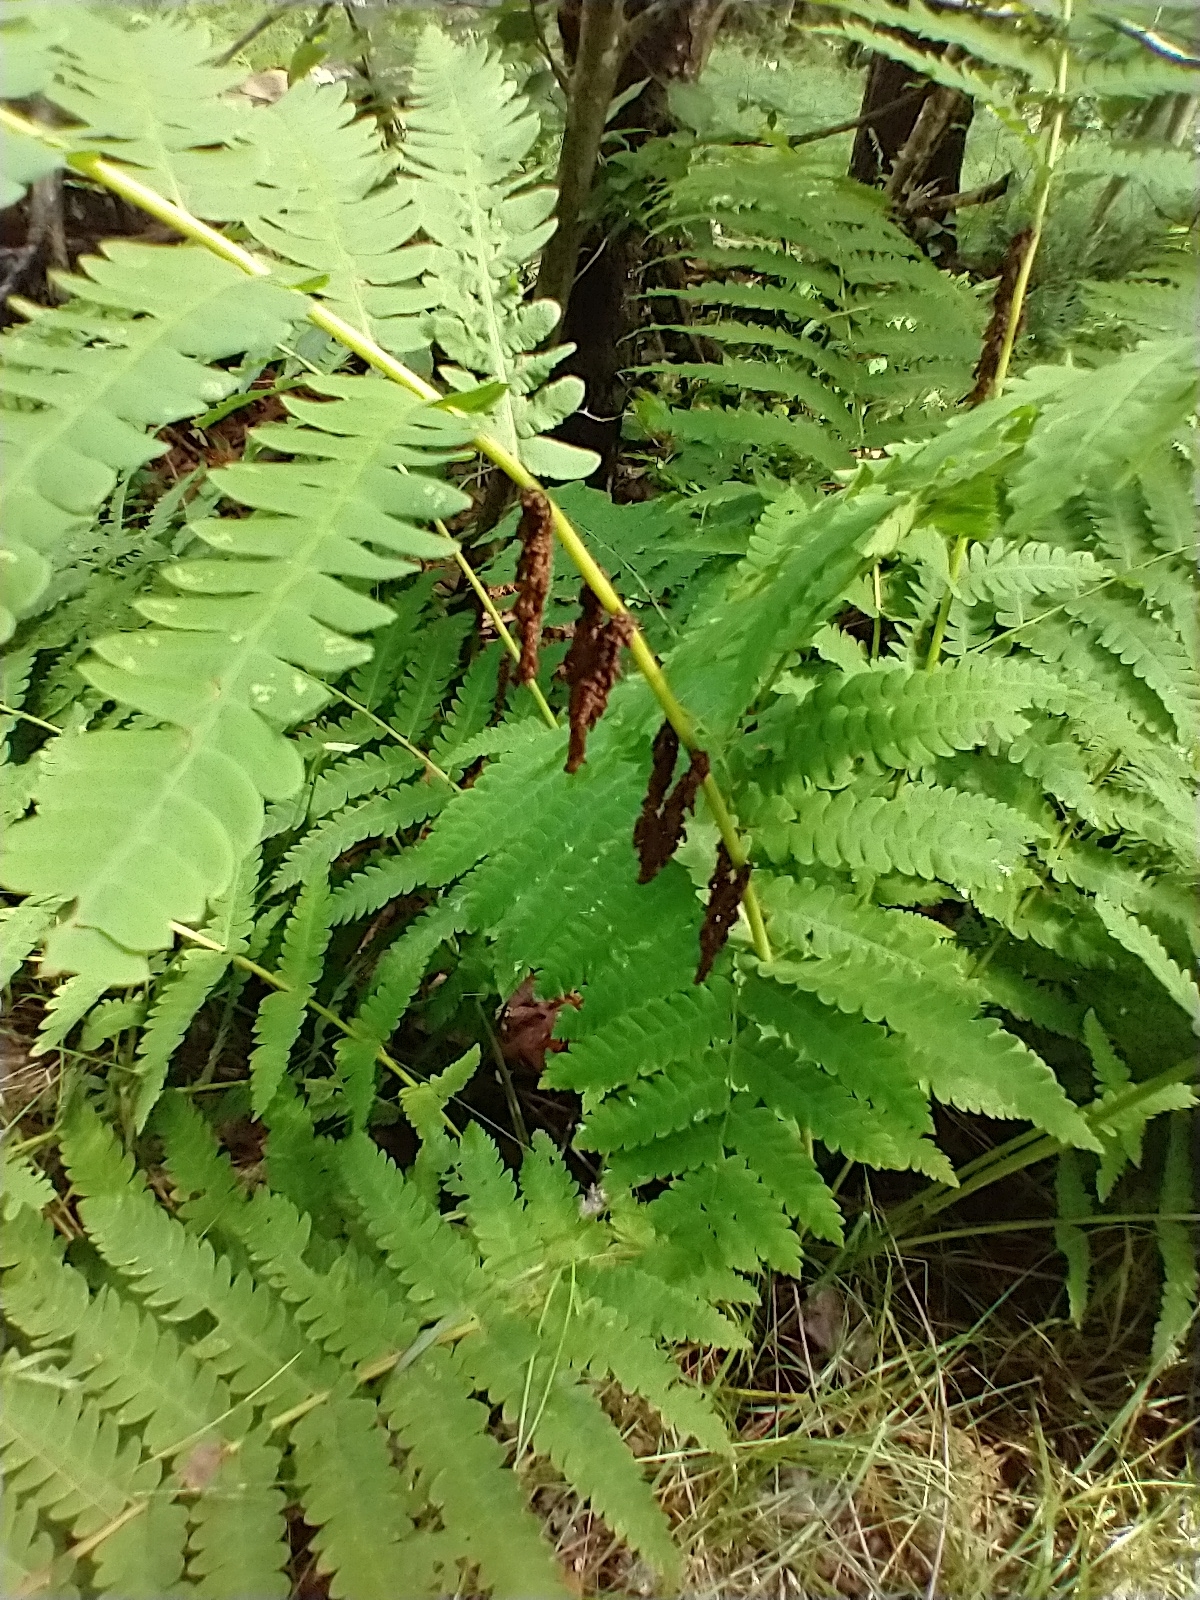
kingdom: Plantae
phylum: Tracheophyta
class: Polypodiopsida
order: Osmundales
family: Osmundaceae
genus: Claytosmunda
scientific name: Claytosmunda claytoniana
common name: Clayton's fern
